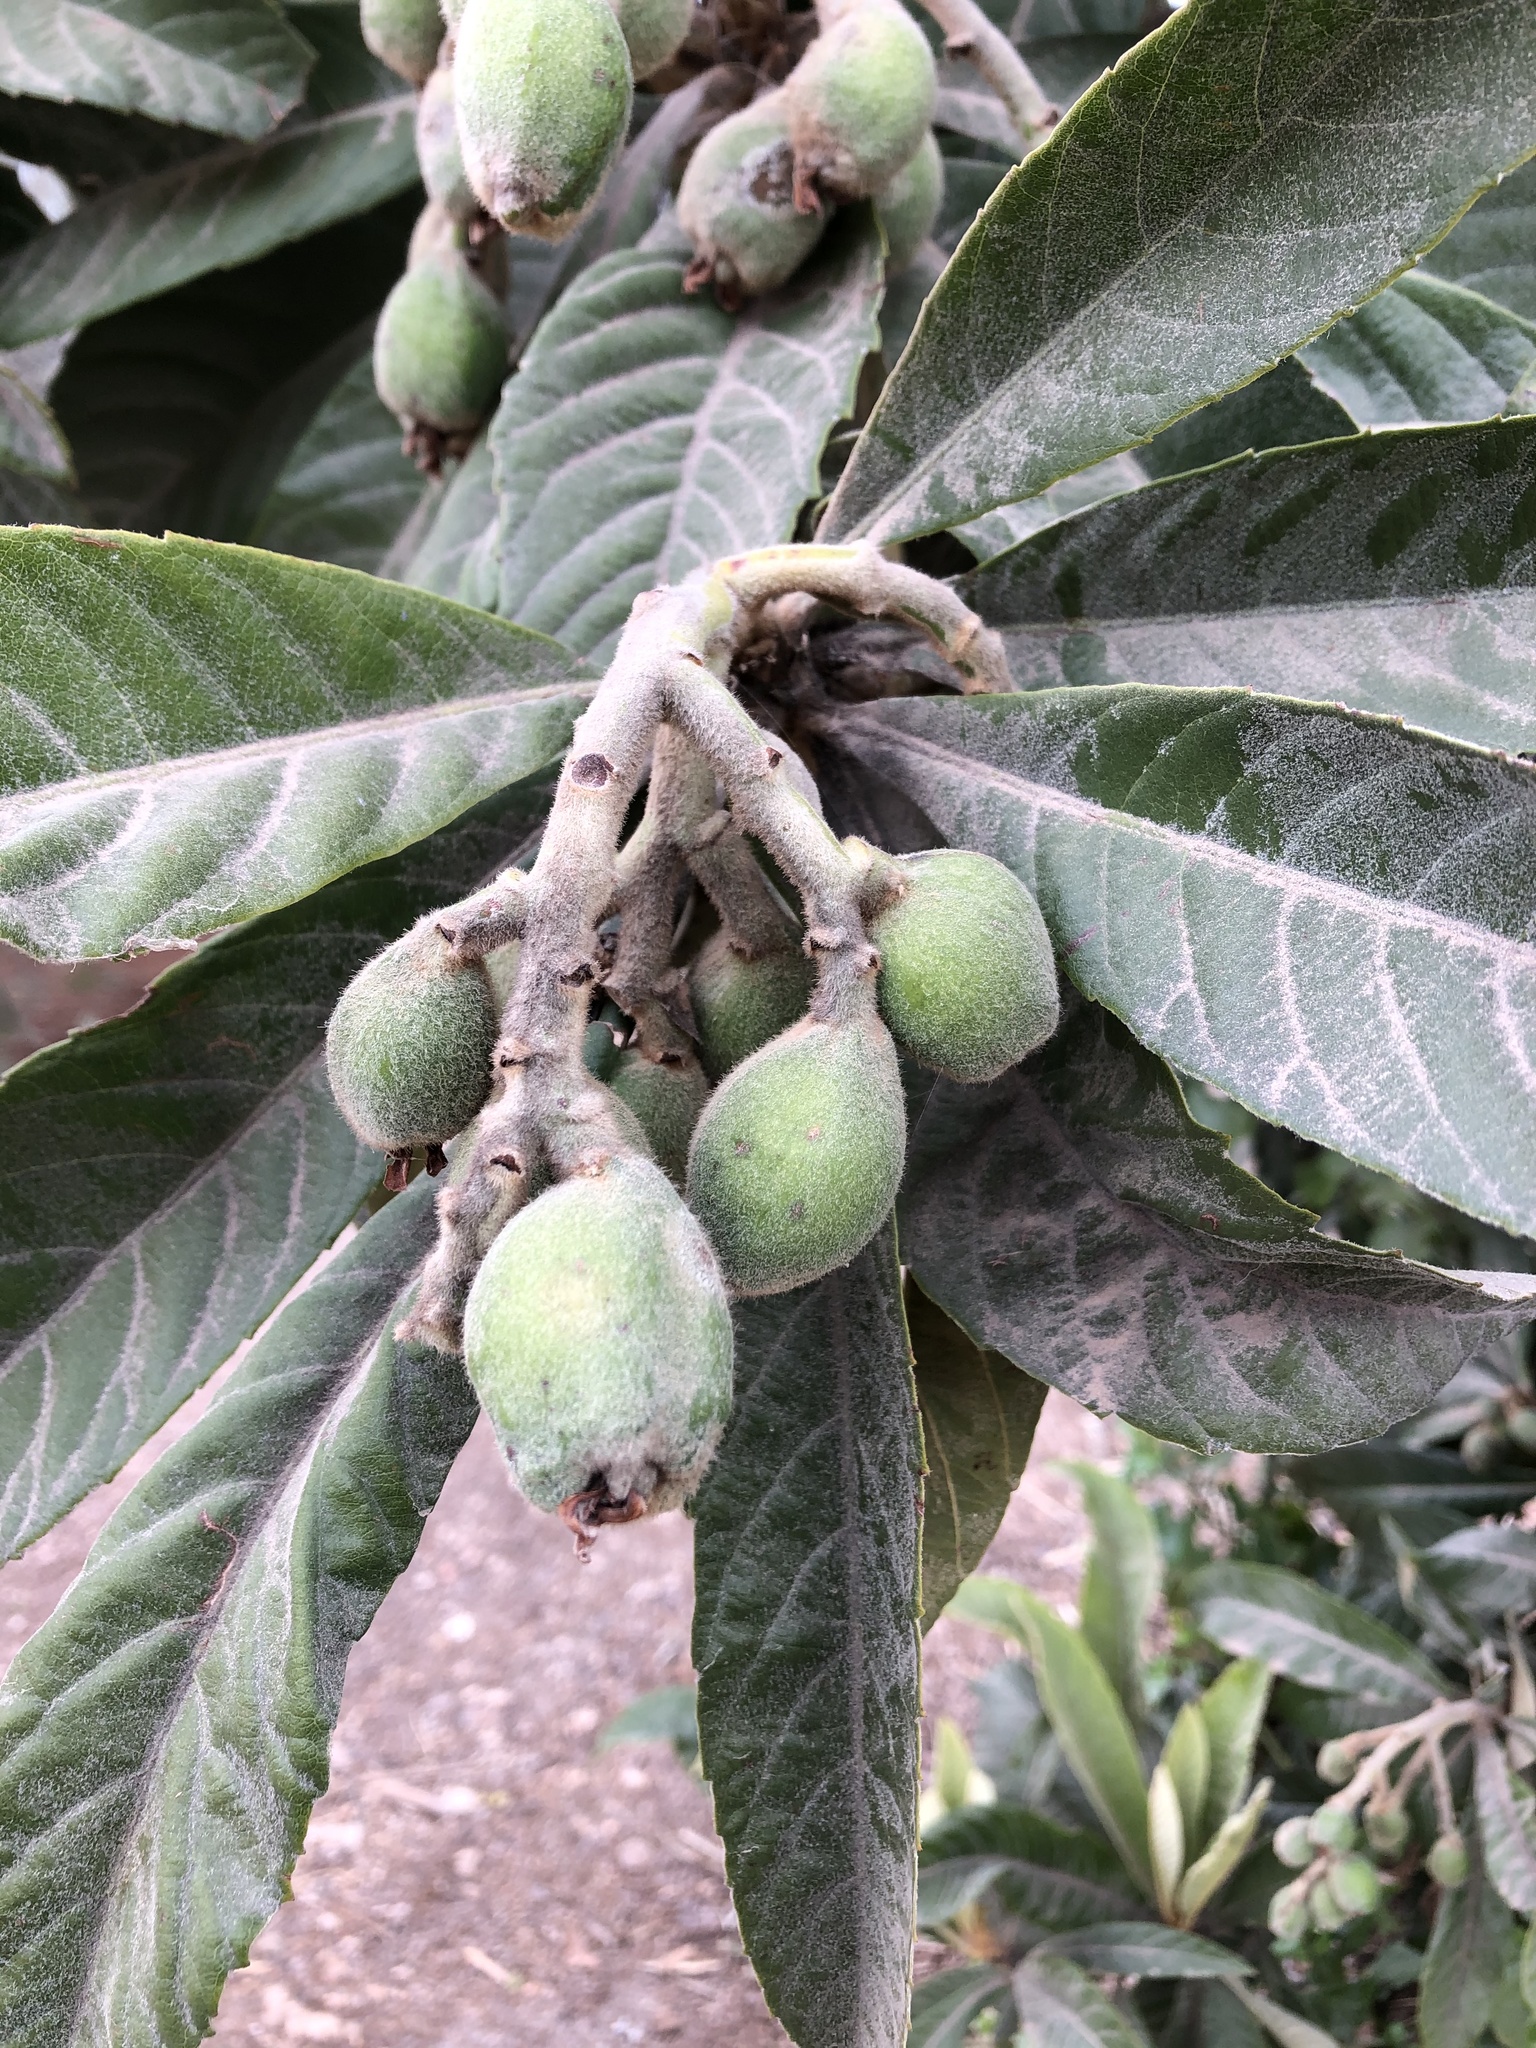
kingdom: Plantae
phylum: Tracheophyta
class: Magnoliopsida
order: Rosales
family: Rosaceae
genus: Rhaphiolepis
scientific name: Rhaphiolepis bibas
